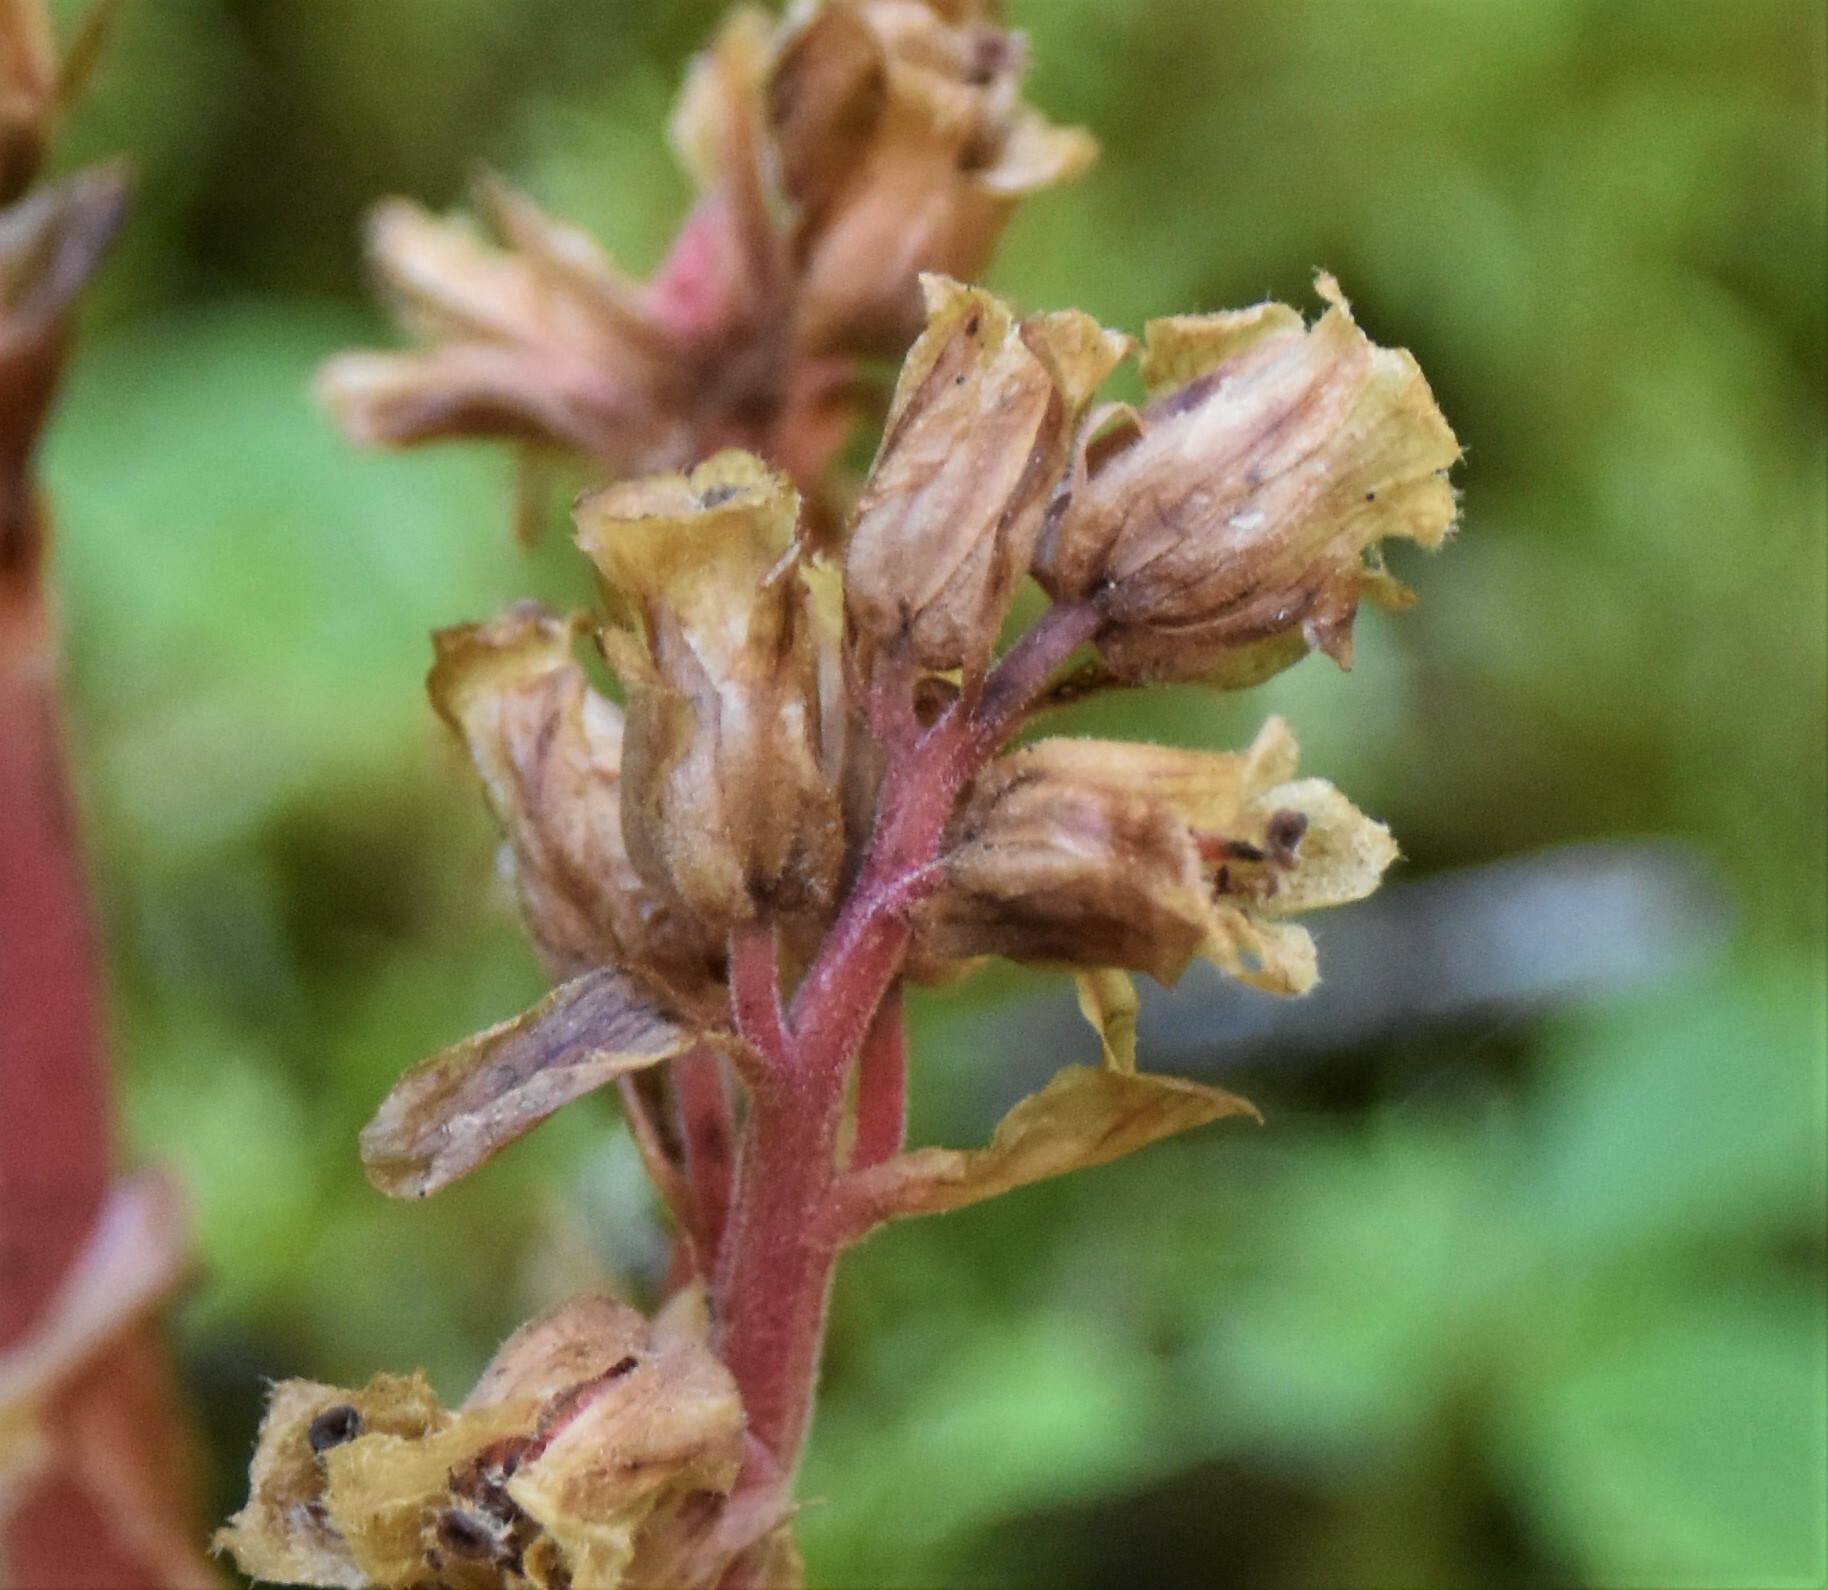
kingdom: Plantae
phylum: Tracheophyta
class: Magnoliopsida
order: Ericales
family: Ericaceae
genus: Hypopitys
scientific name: Hypopitys monotropa
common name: Yellow bird's-nest
